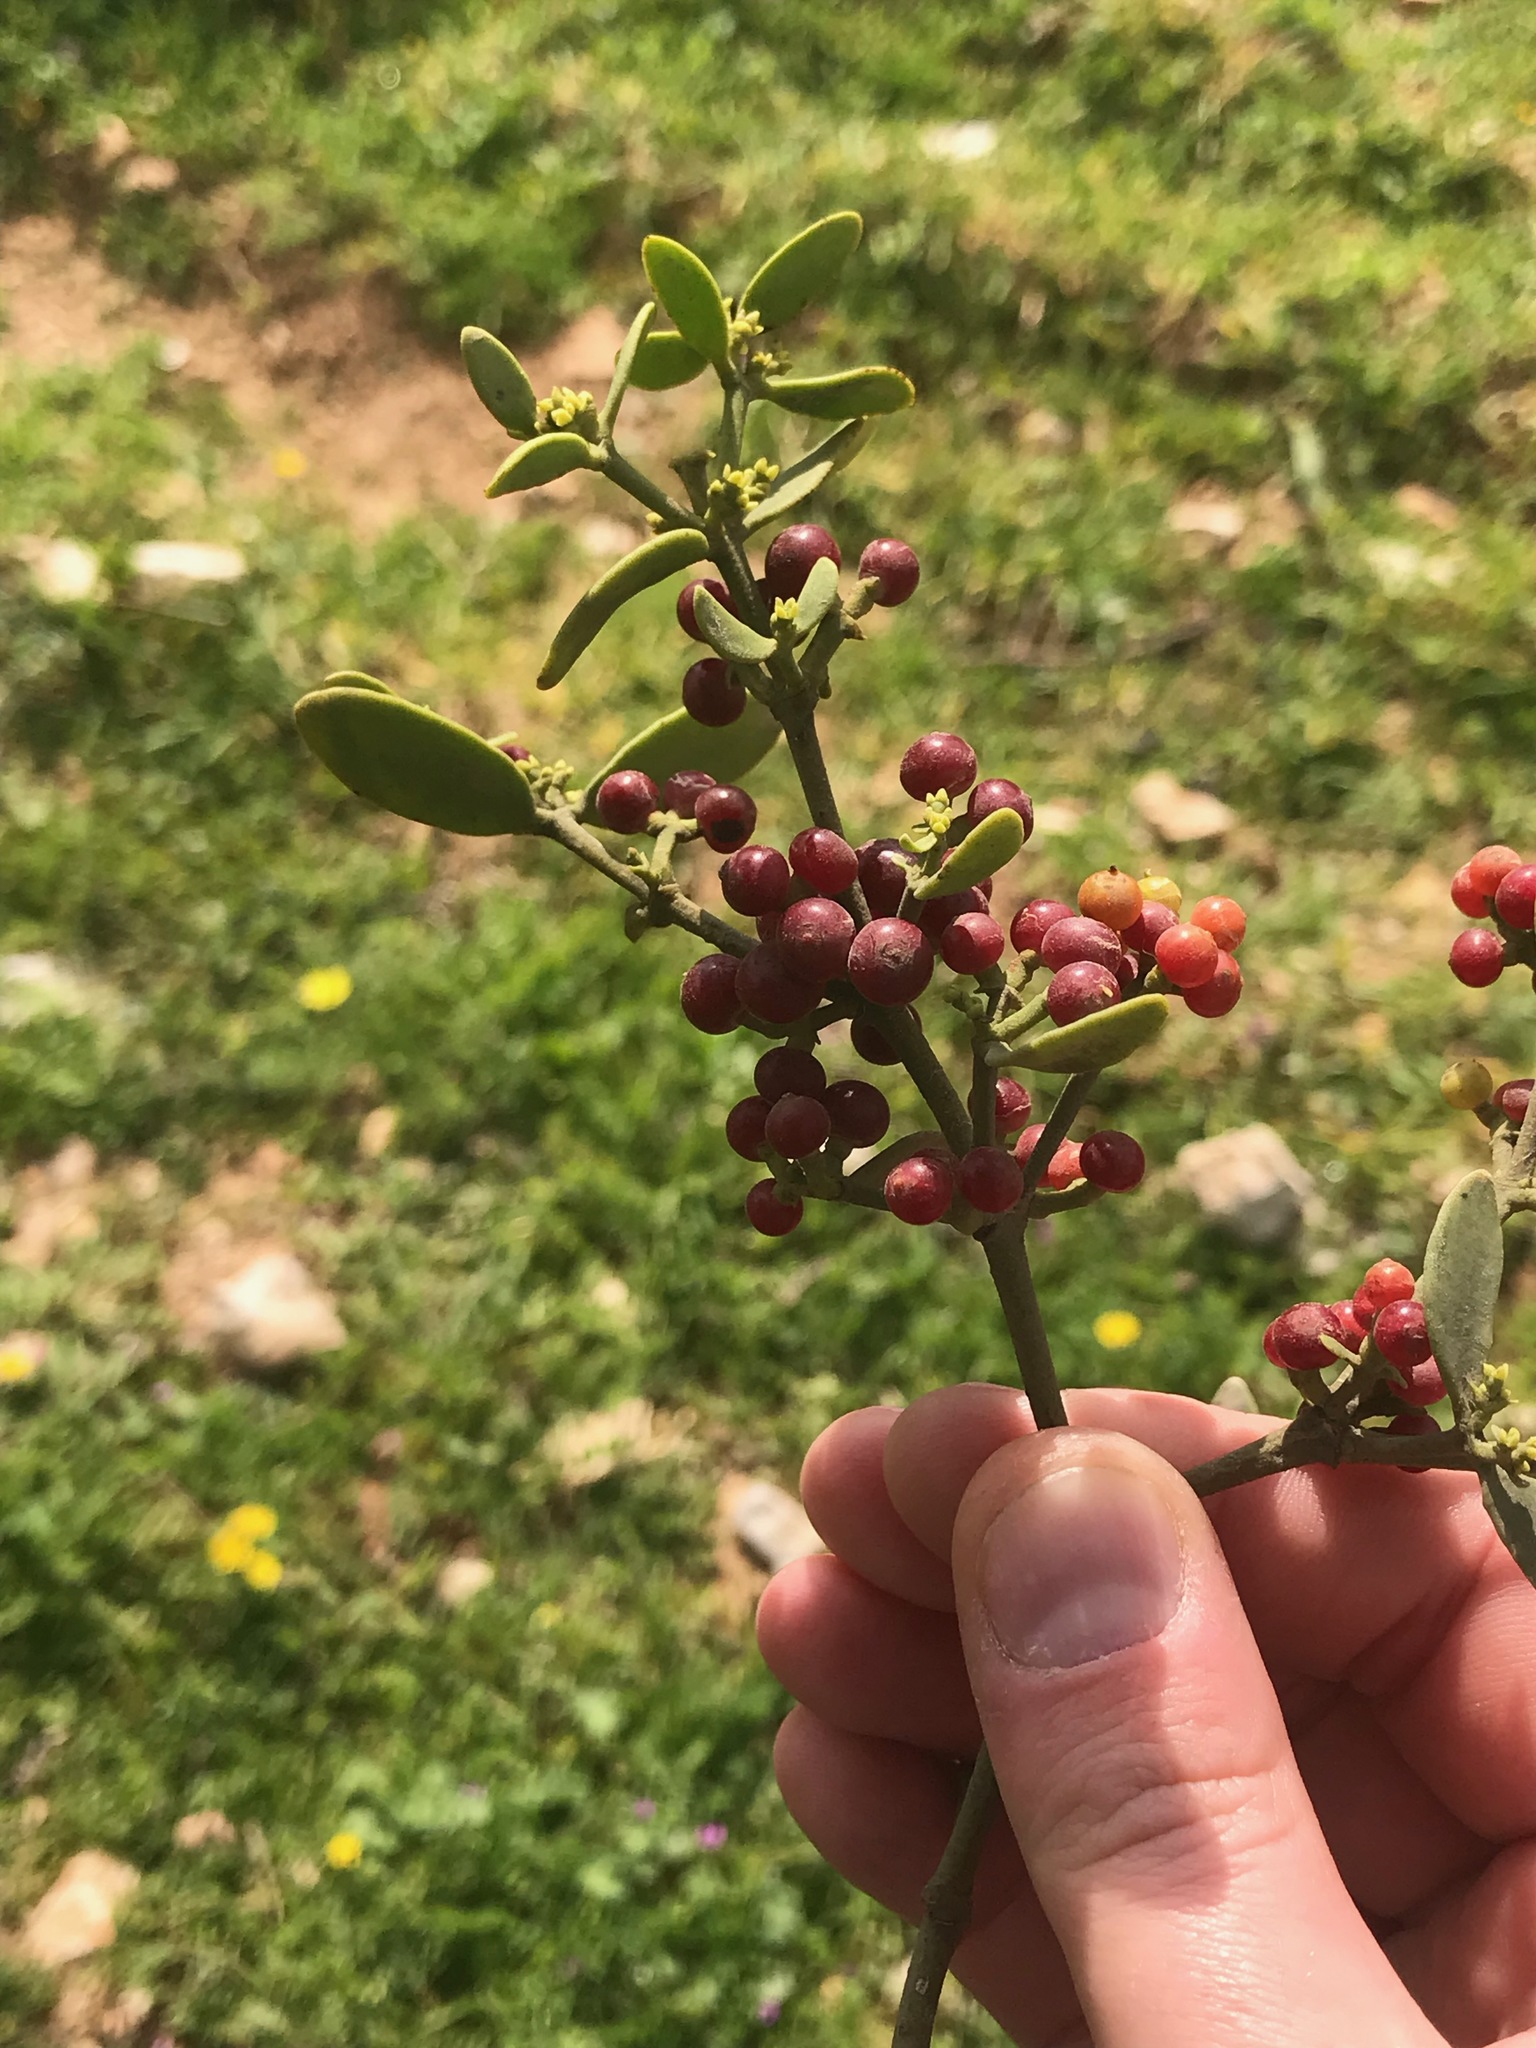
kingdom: Plantae
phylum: Tracheophyta
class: Magnoliopsida
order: Santalales
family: Viscaceae
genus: Viscum
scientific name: Viscum cruciatum
